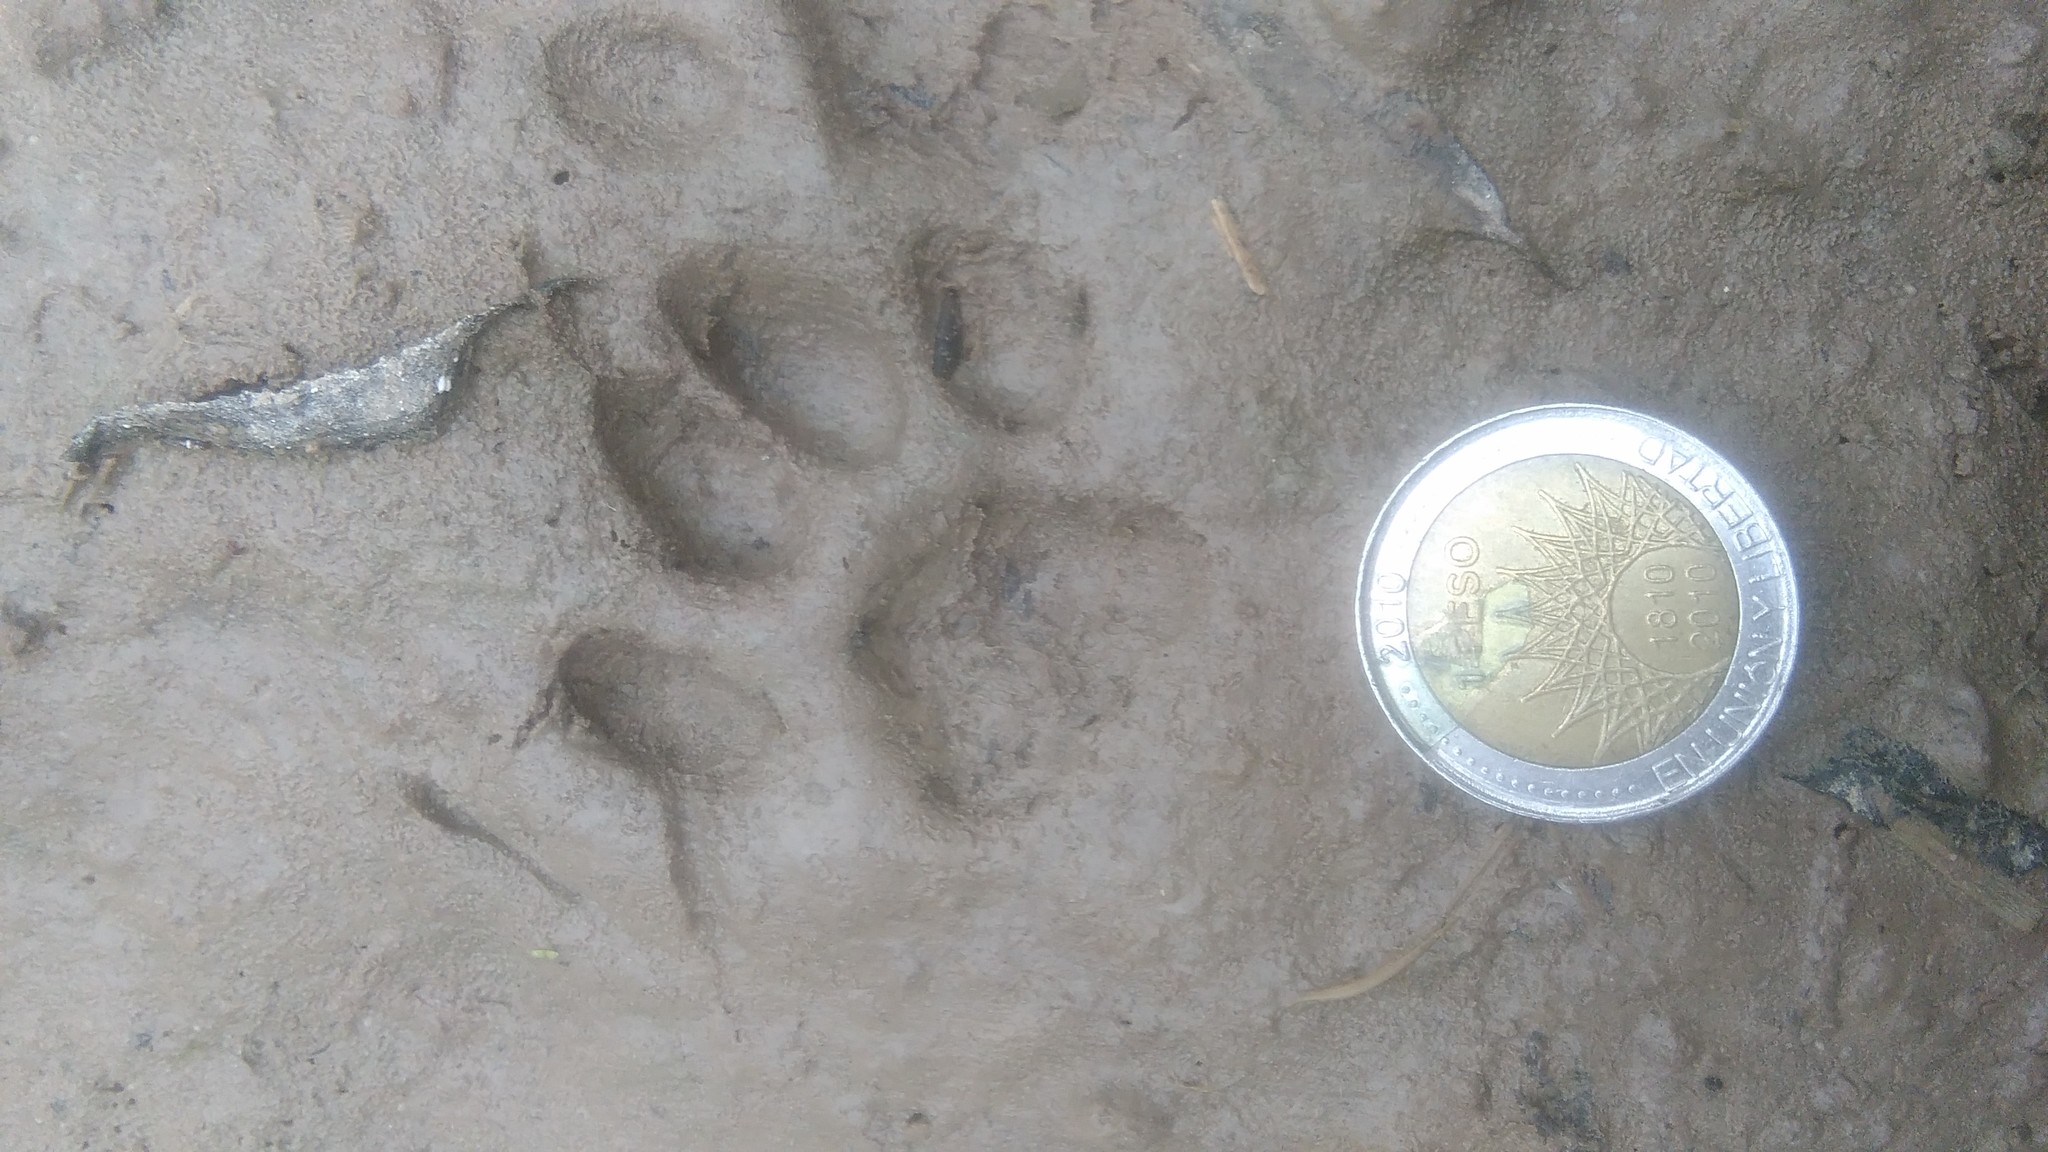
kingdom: Animalia
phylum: Chordata
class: Mammalia
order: Carnivora
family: Felidae
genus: Leopardus
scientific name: Leopardus geoffroyi
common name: Geoffroy's cat
